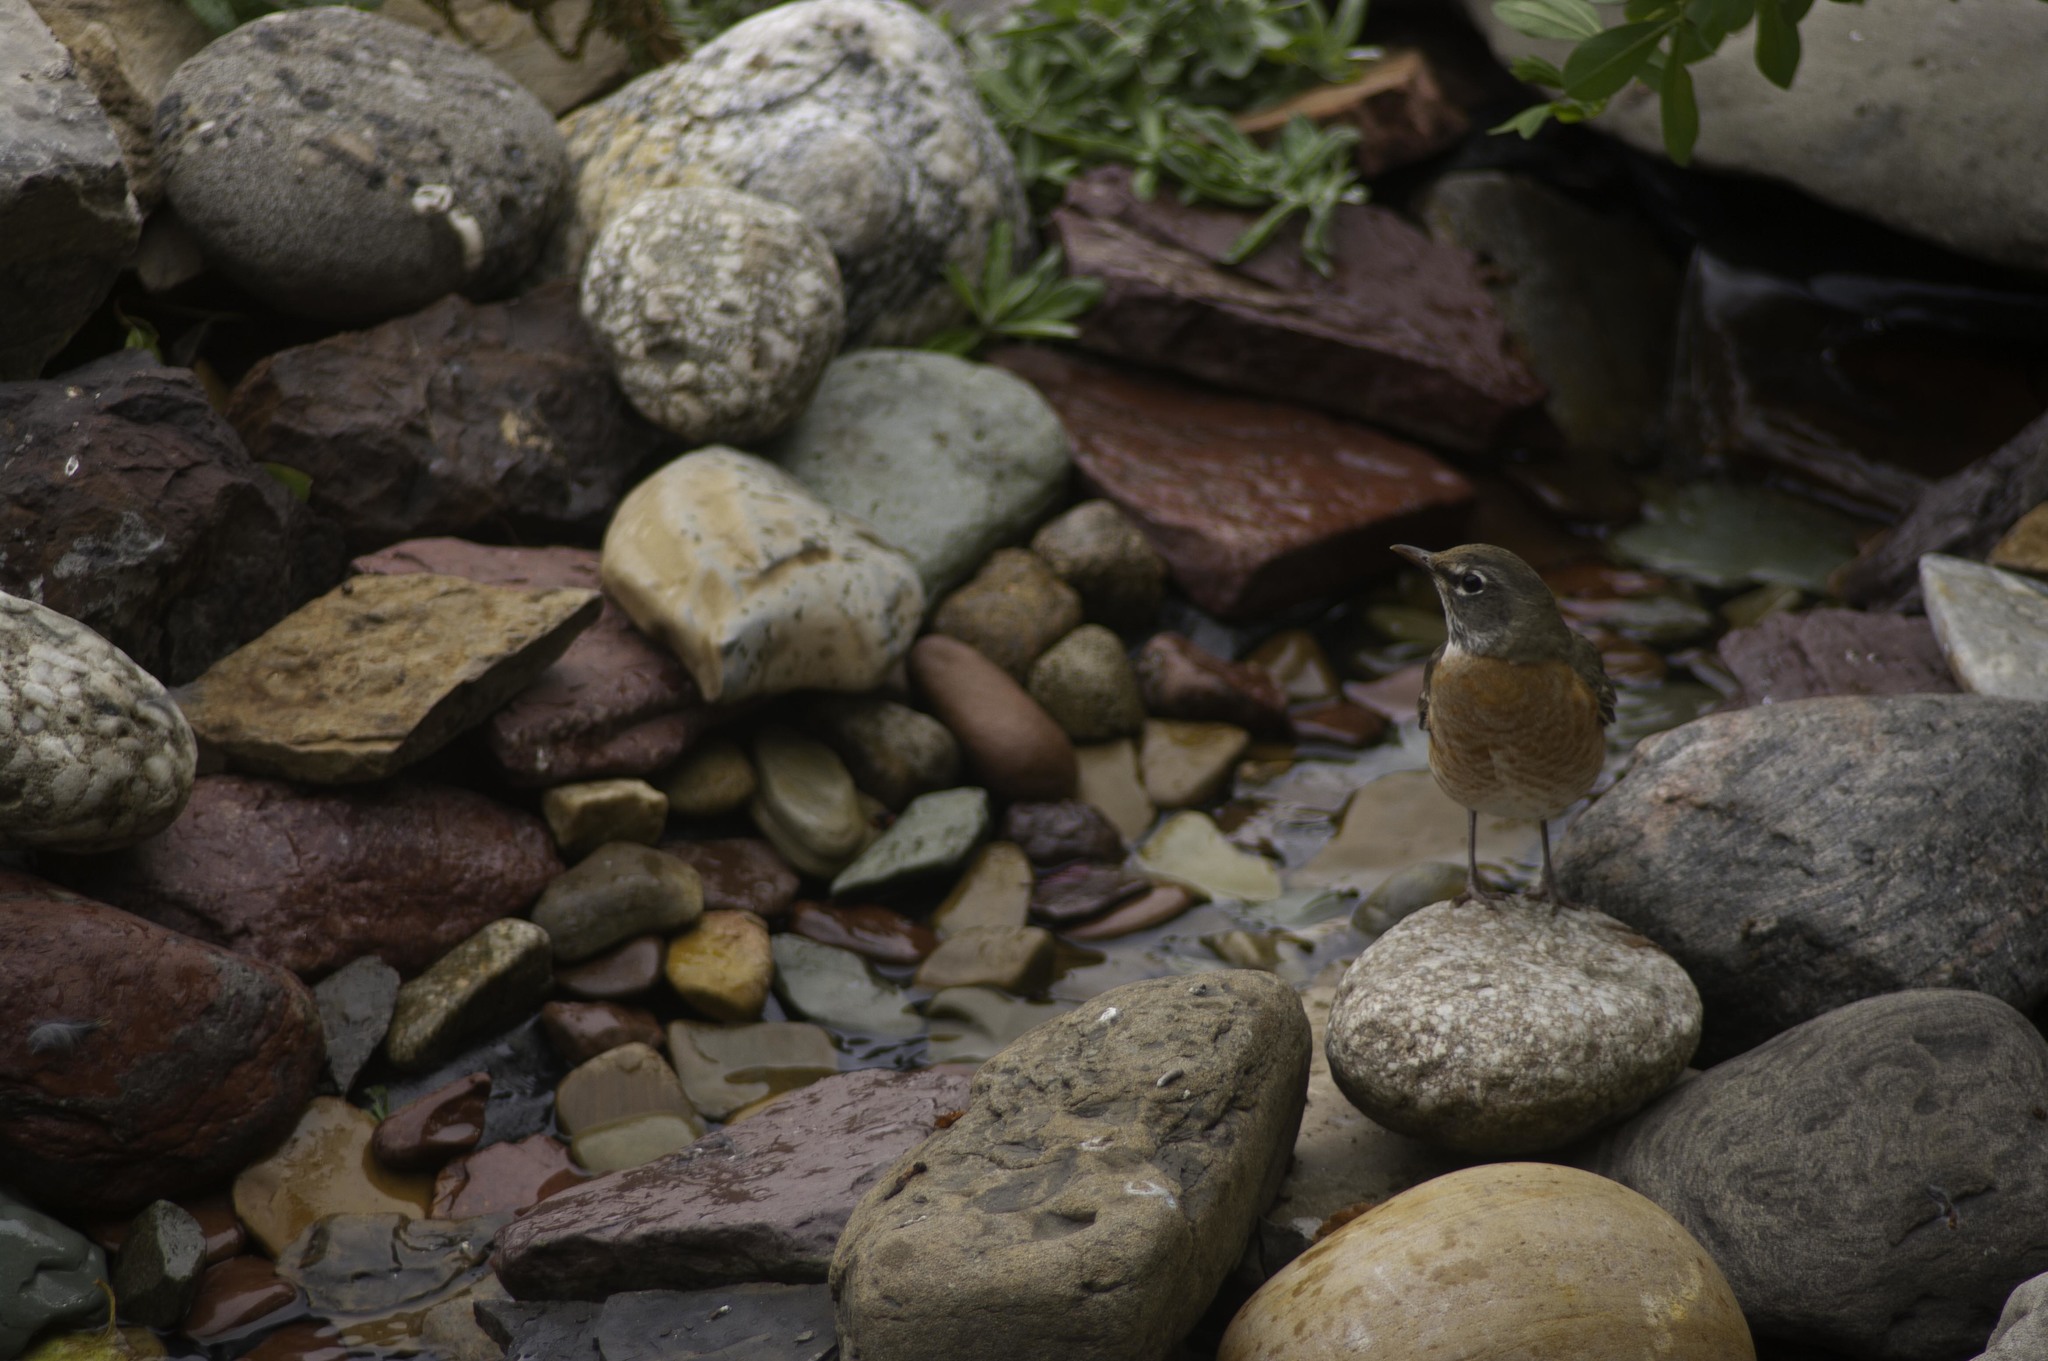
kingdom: Animalia
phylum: Chordata
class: Aves
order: Passeriformes
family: Turdidae
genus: Turdus
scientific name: Turdus migratorius
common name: American robin
